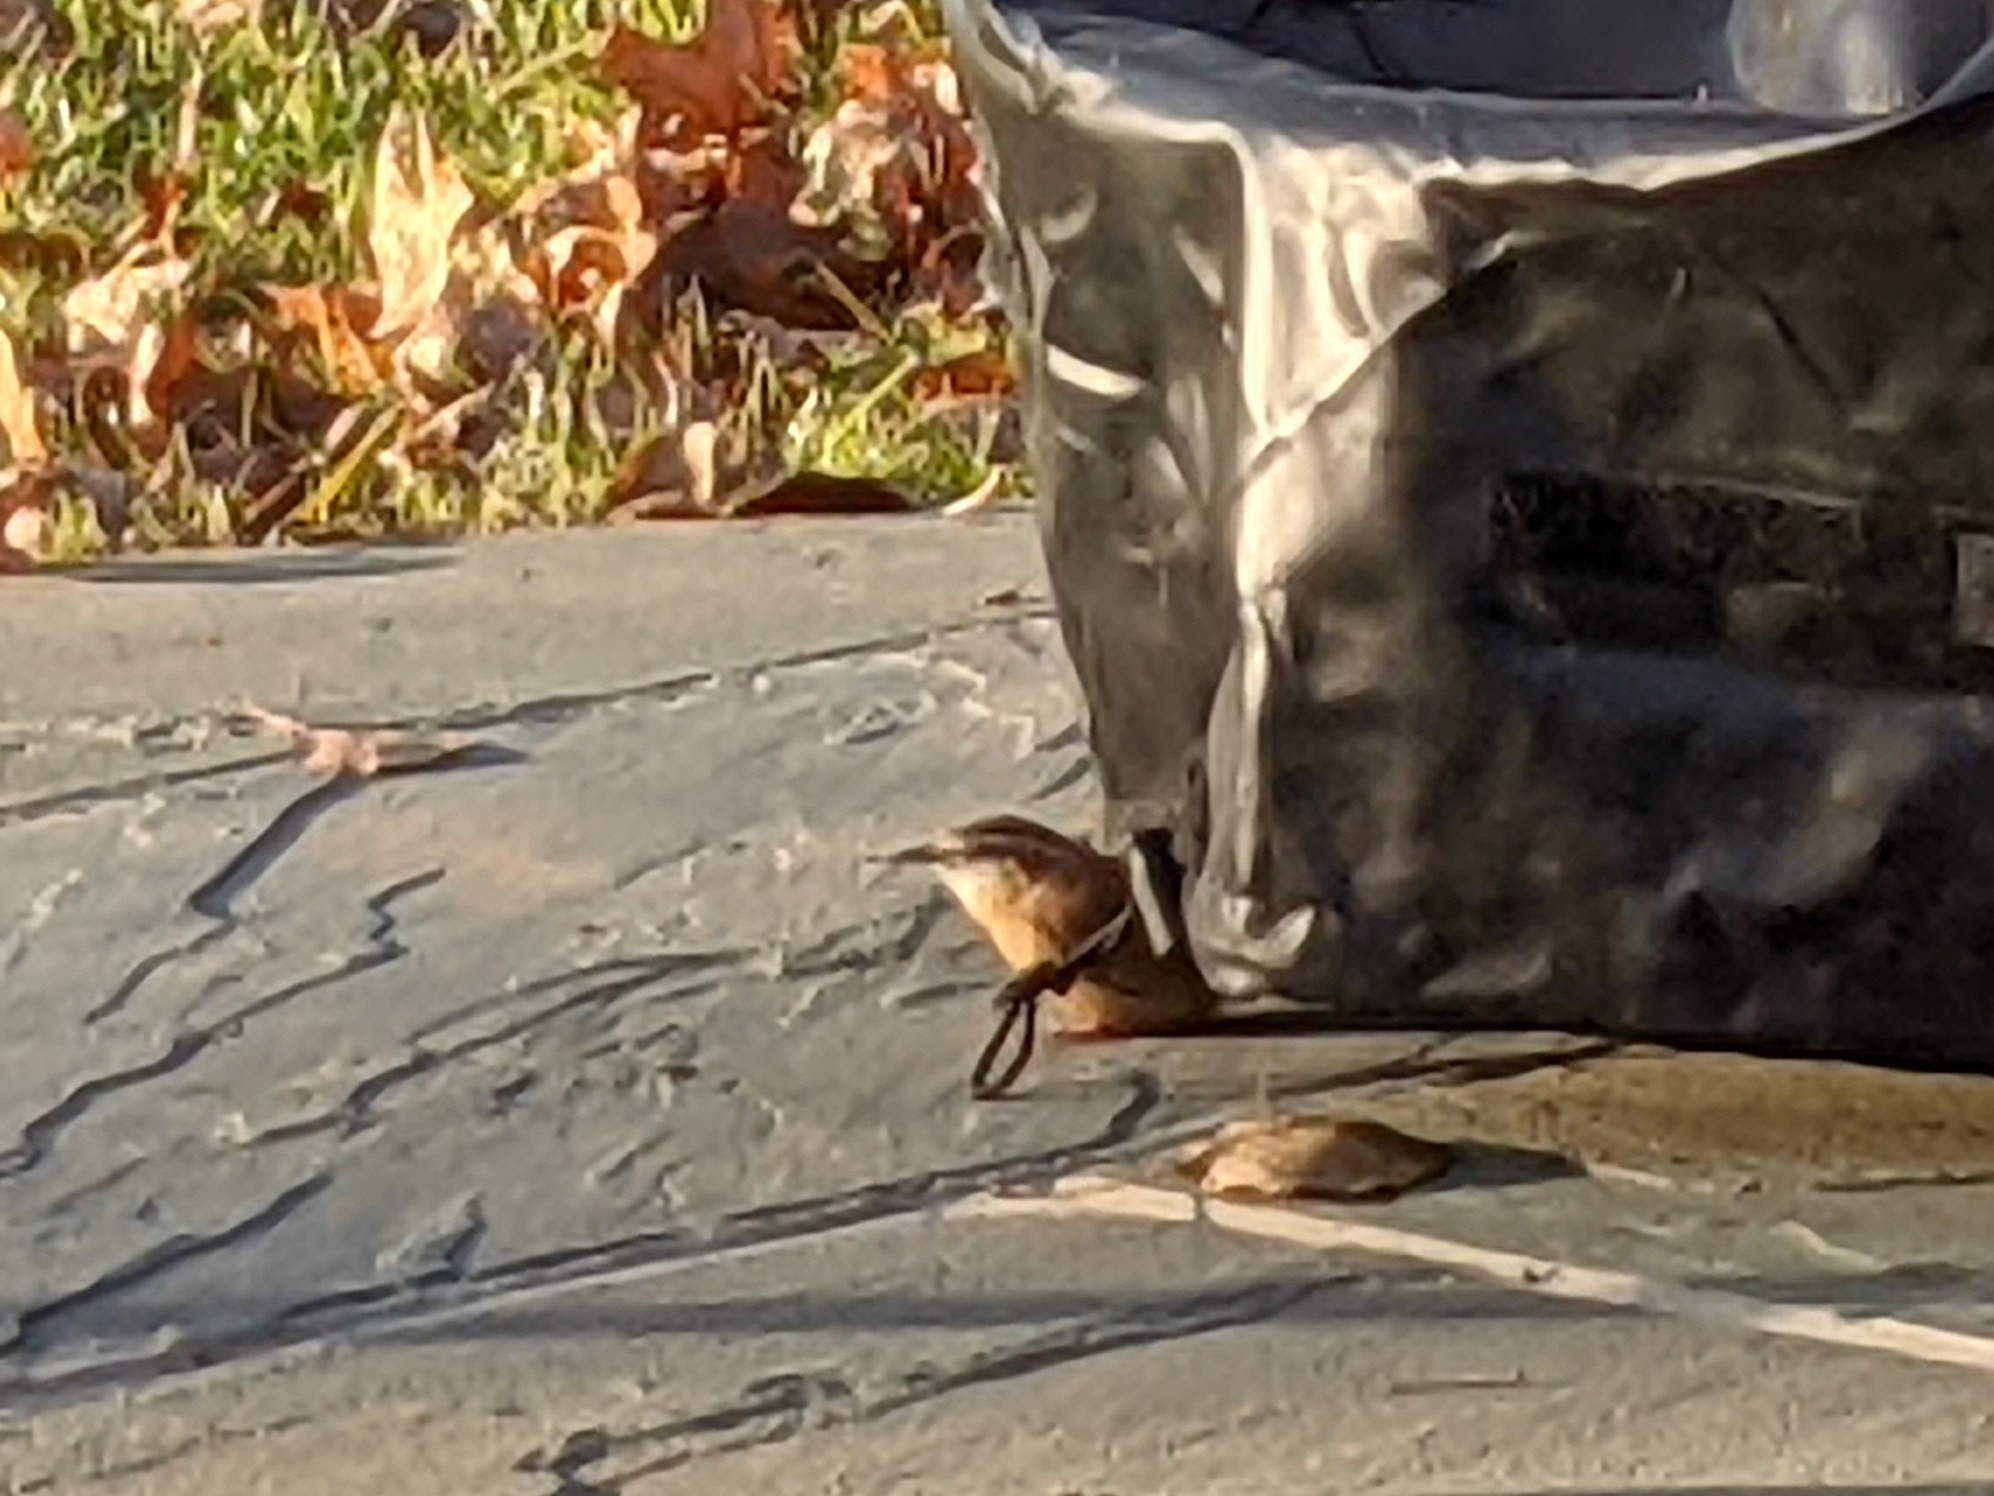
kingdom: Animalia
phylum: Chordata
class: Aves
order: Passeriformes
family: Troglodytidae
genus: Thryothorus
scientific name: Thryothorus ludovicianus
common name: Carolina wren
